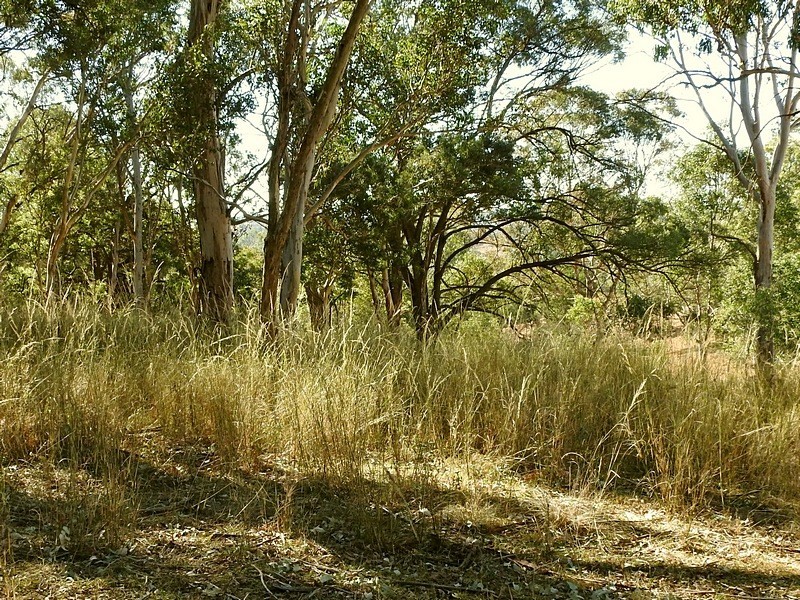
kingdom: Plantae
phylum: Tracheophyta
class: Liliopsida
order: Poales
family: Poaceae
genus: Austrostipa
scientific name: Austrostipa verticillata
